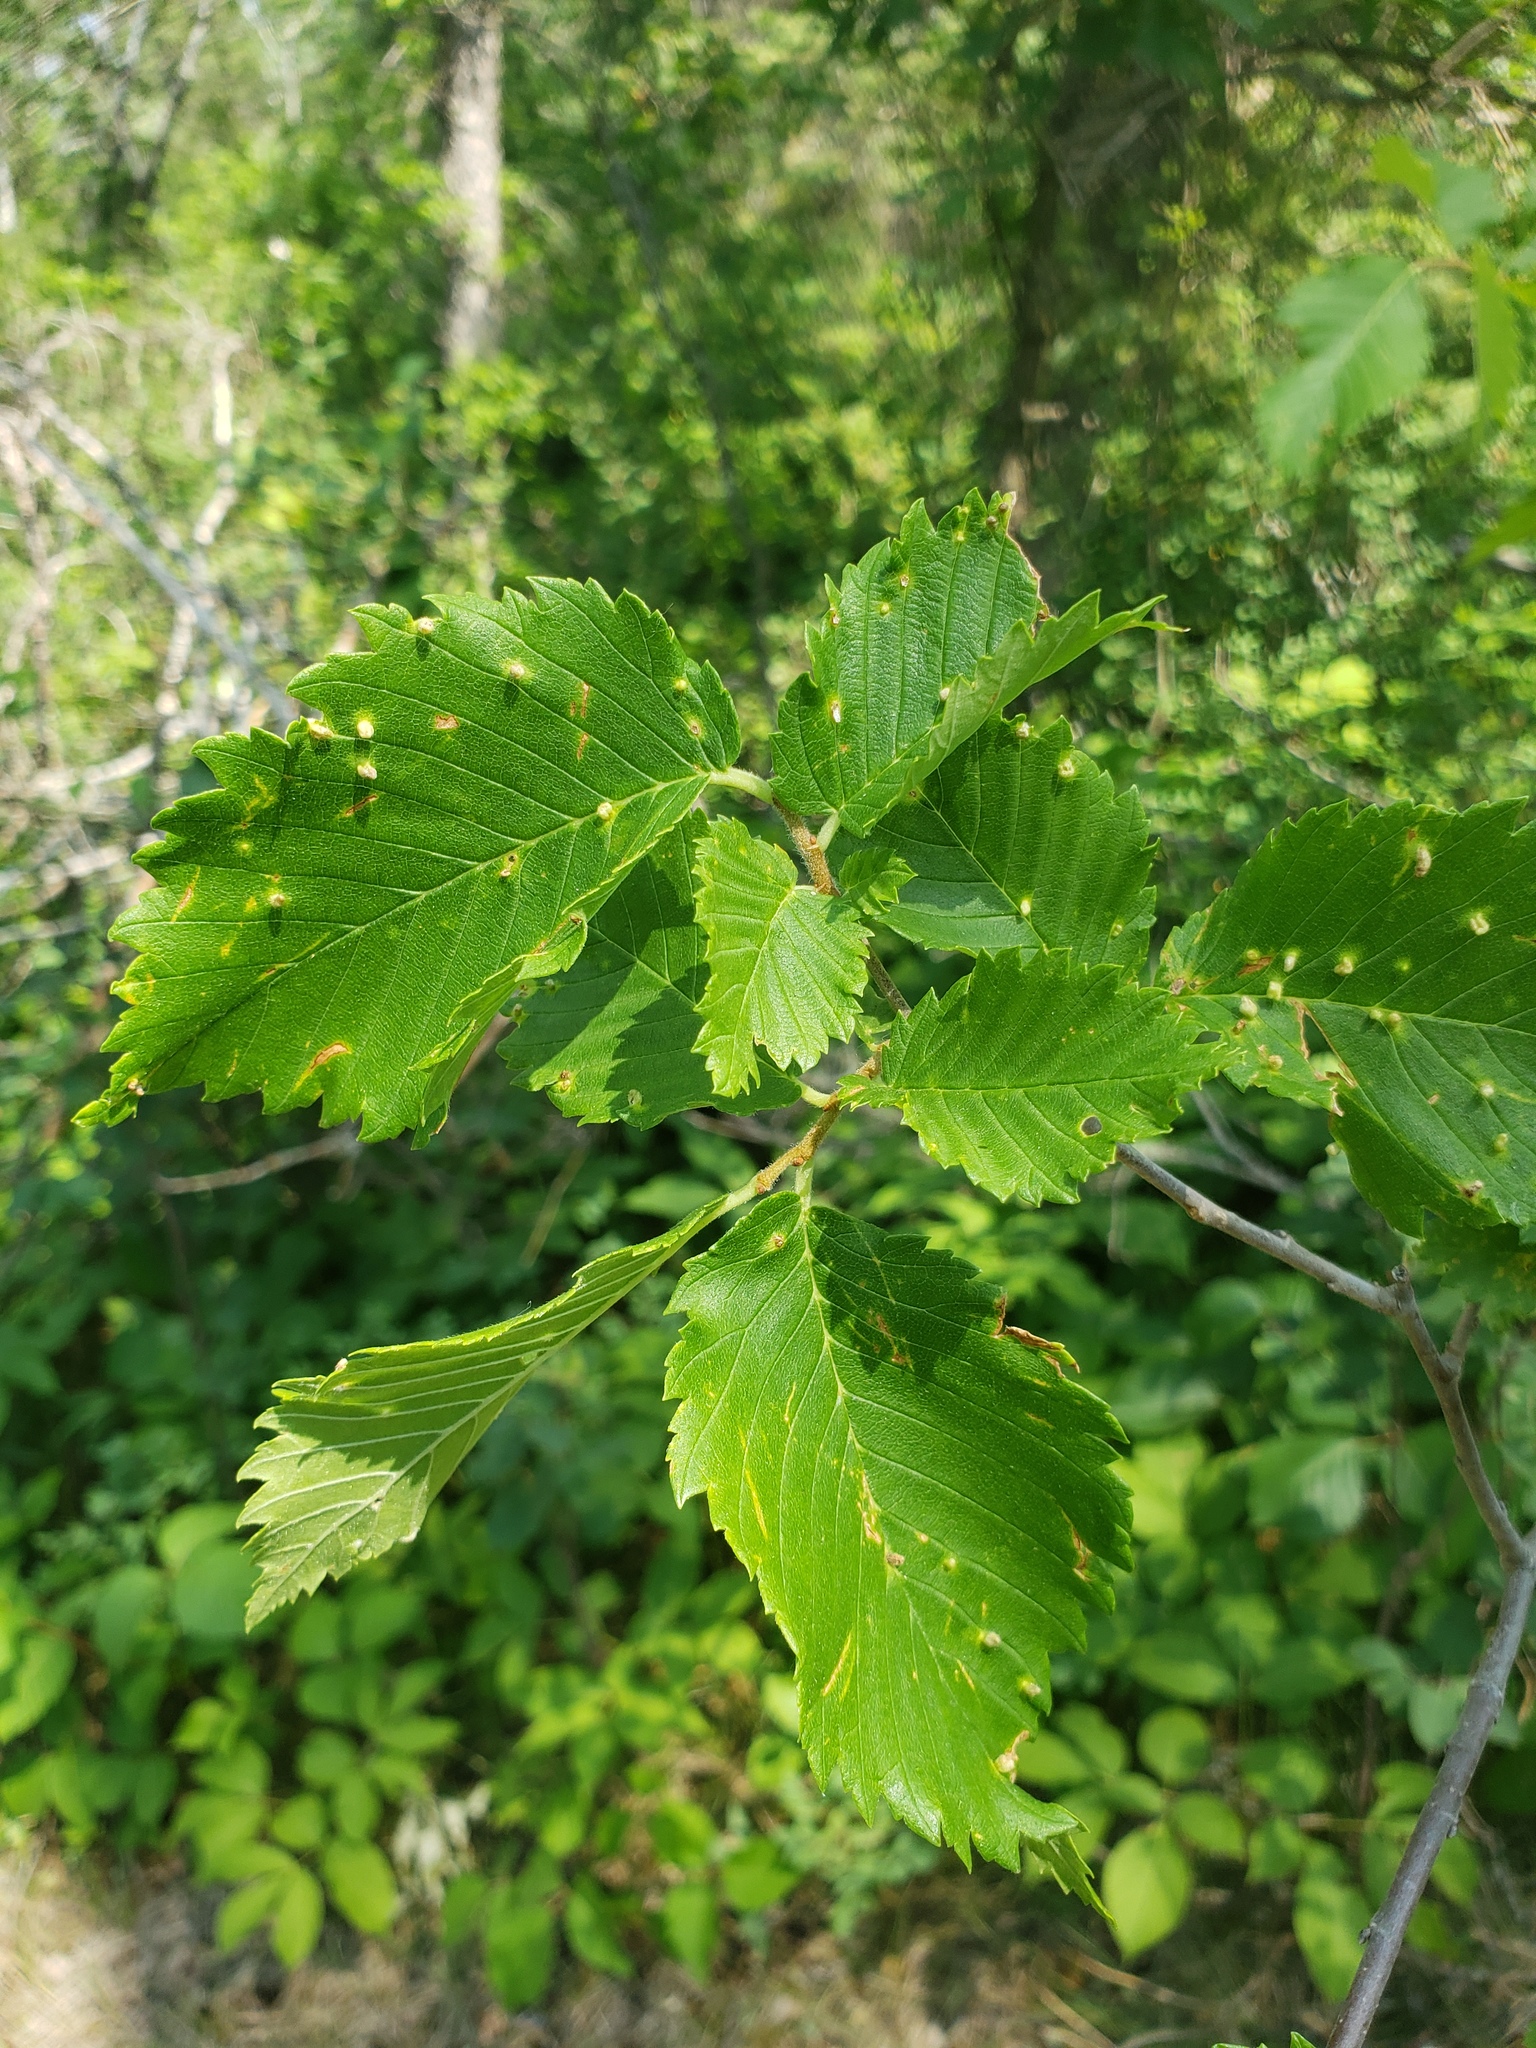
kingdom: Plantae
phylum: Tracheophyta
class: Magnoliopsida
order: Rosales
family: Ulmaceae
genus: Ulmus
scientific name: Ulmus americana
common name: American elm
